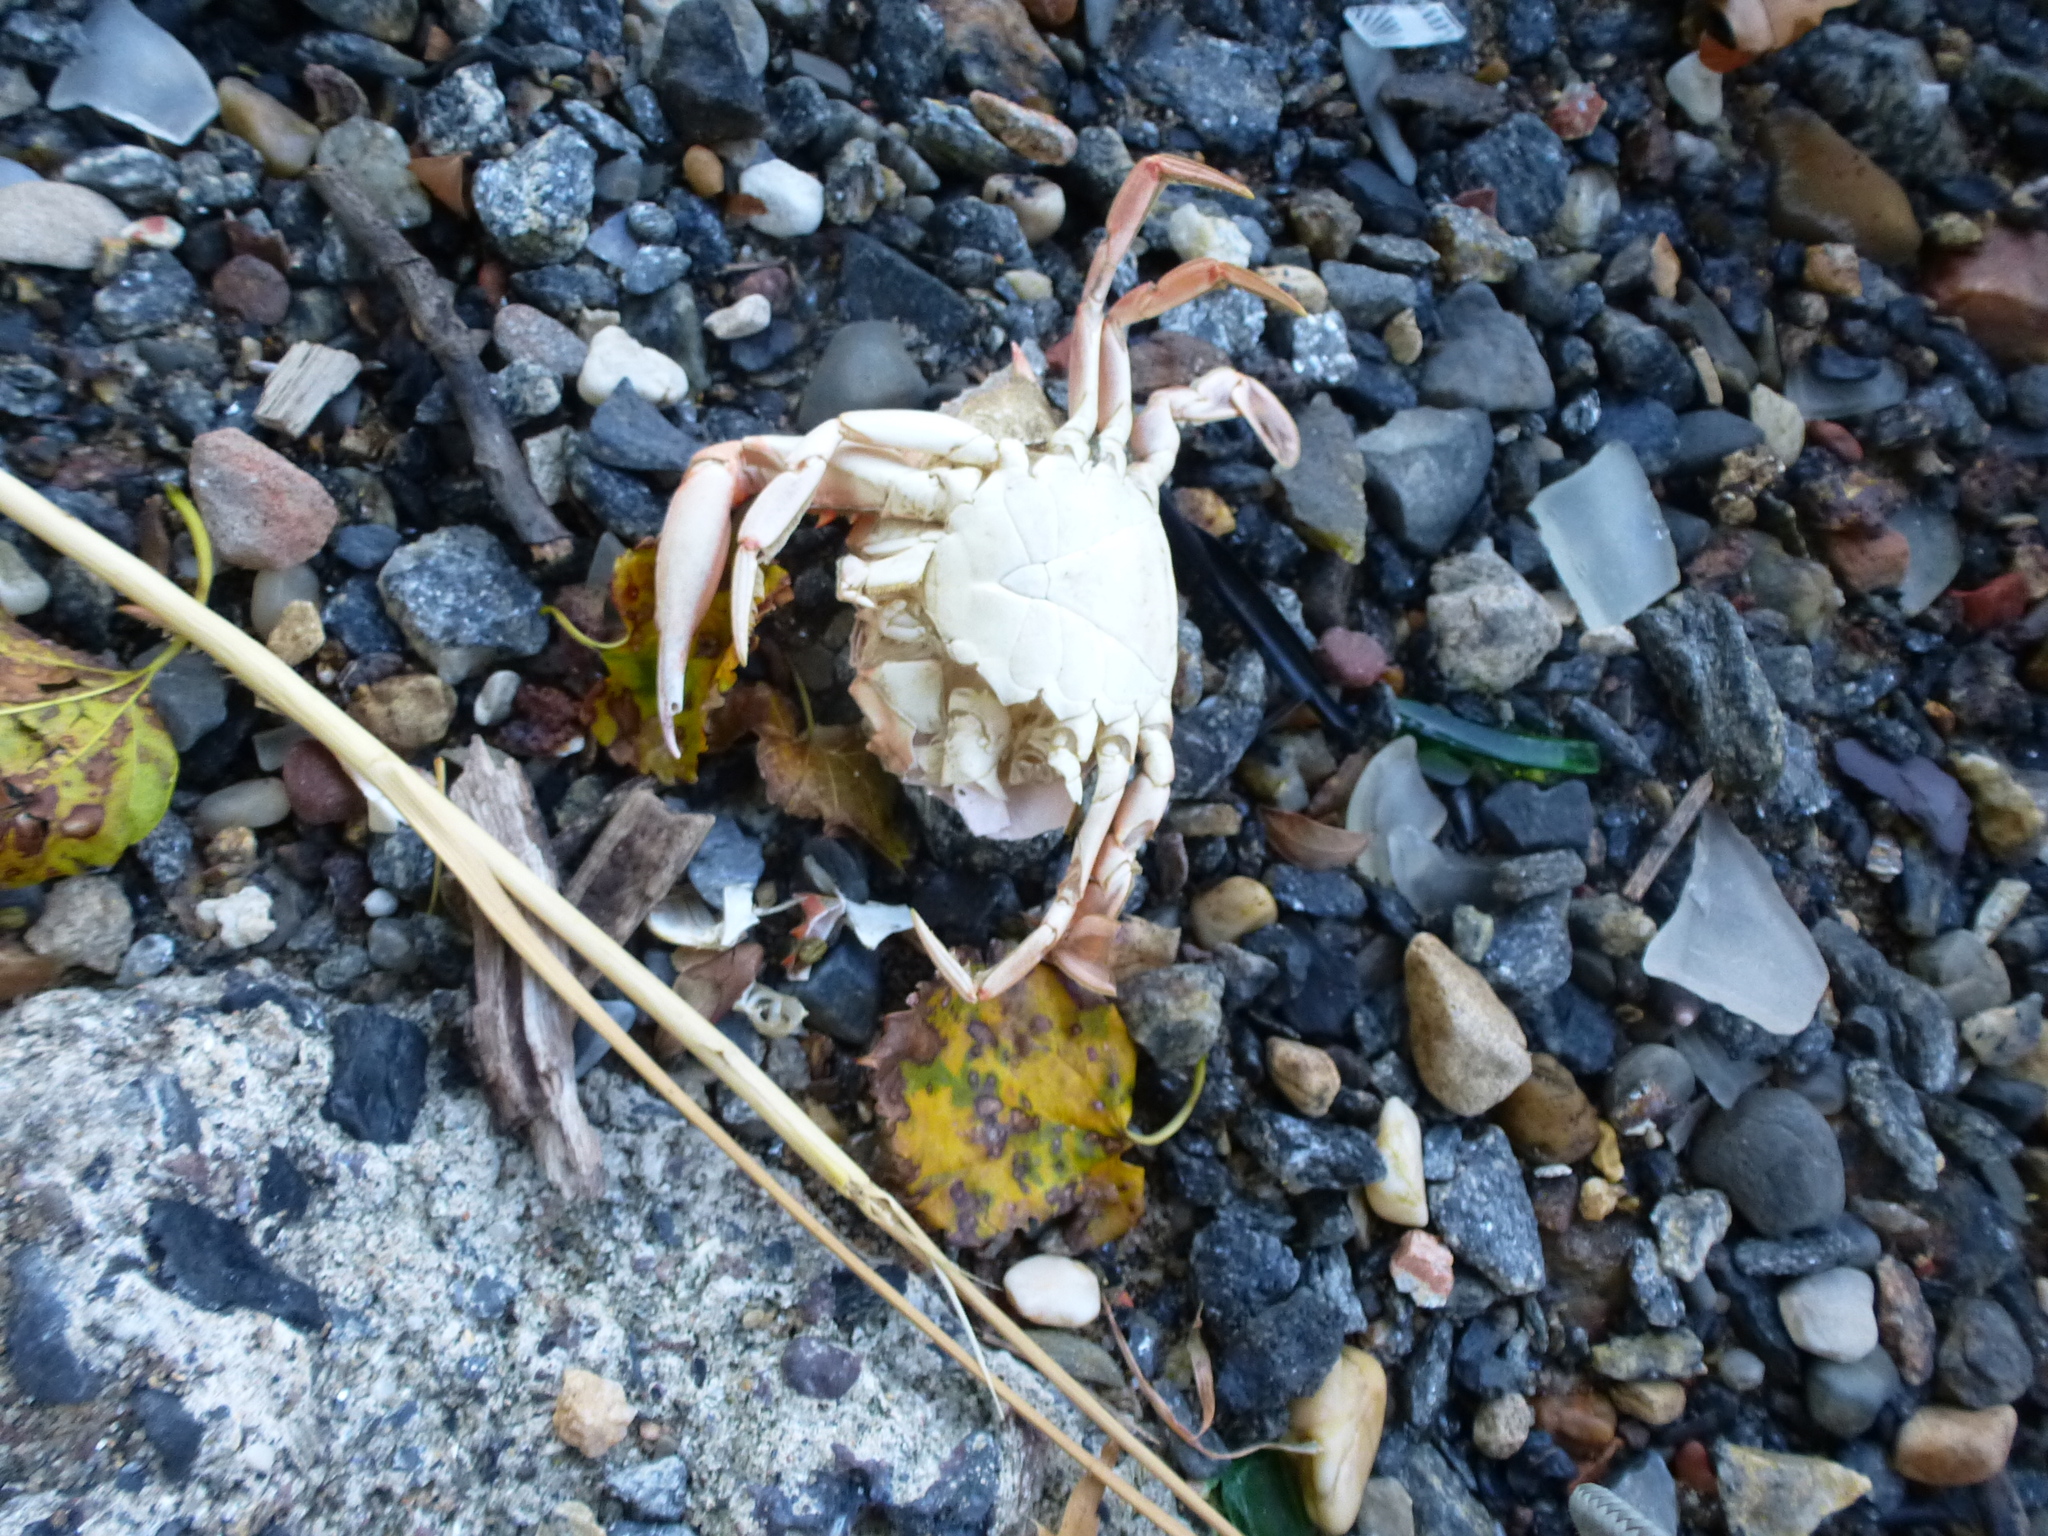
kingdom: Animalia
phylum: Arthropoda
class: Malacostraca
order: Decapoda
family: Portunidae
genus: Callinectes
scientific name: Callinectes sapidus
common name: Blue crab
